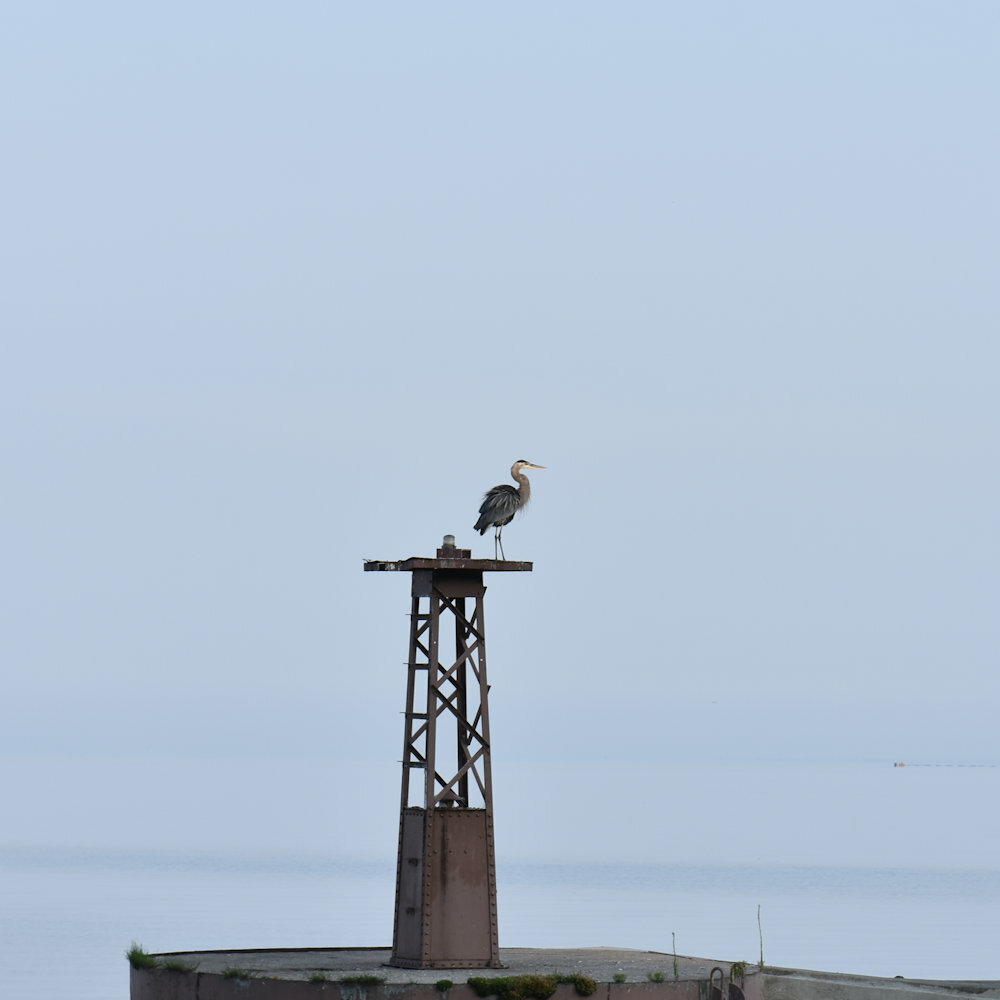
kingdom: Animalia
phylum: Chordata
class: Aves
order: Pelecaniformes
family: Ardeidae
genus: Ardea
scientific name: Ardea herodias
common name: Great blue heron
